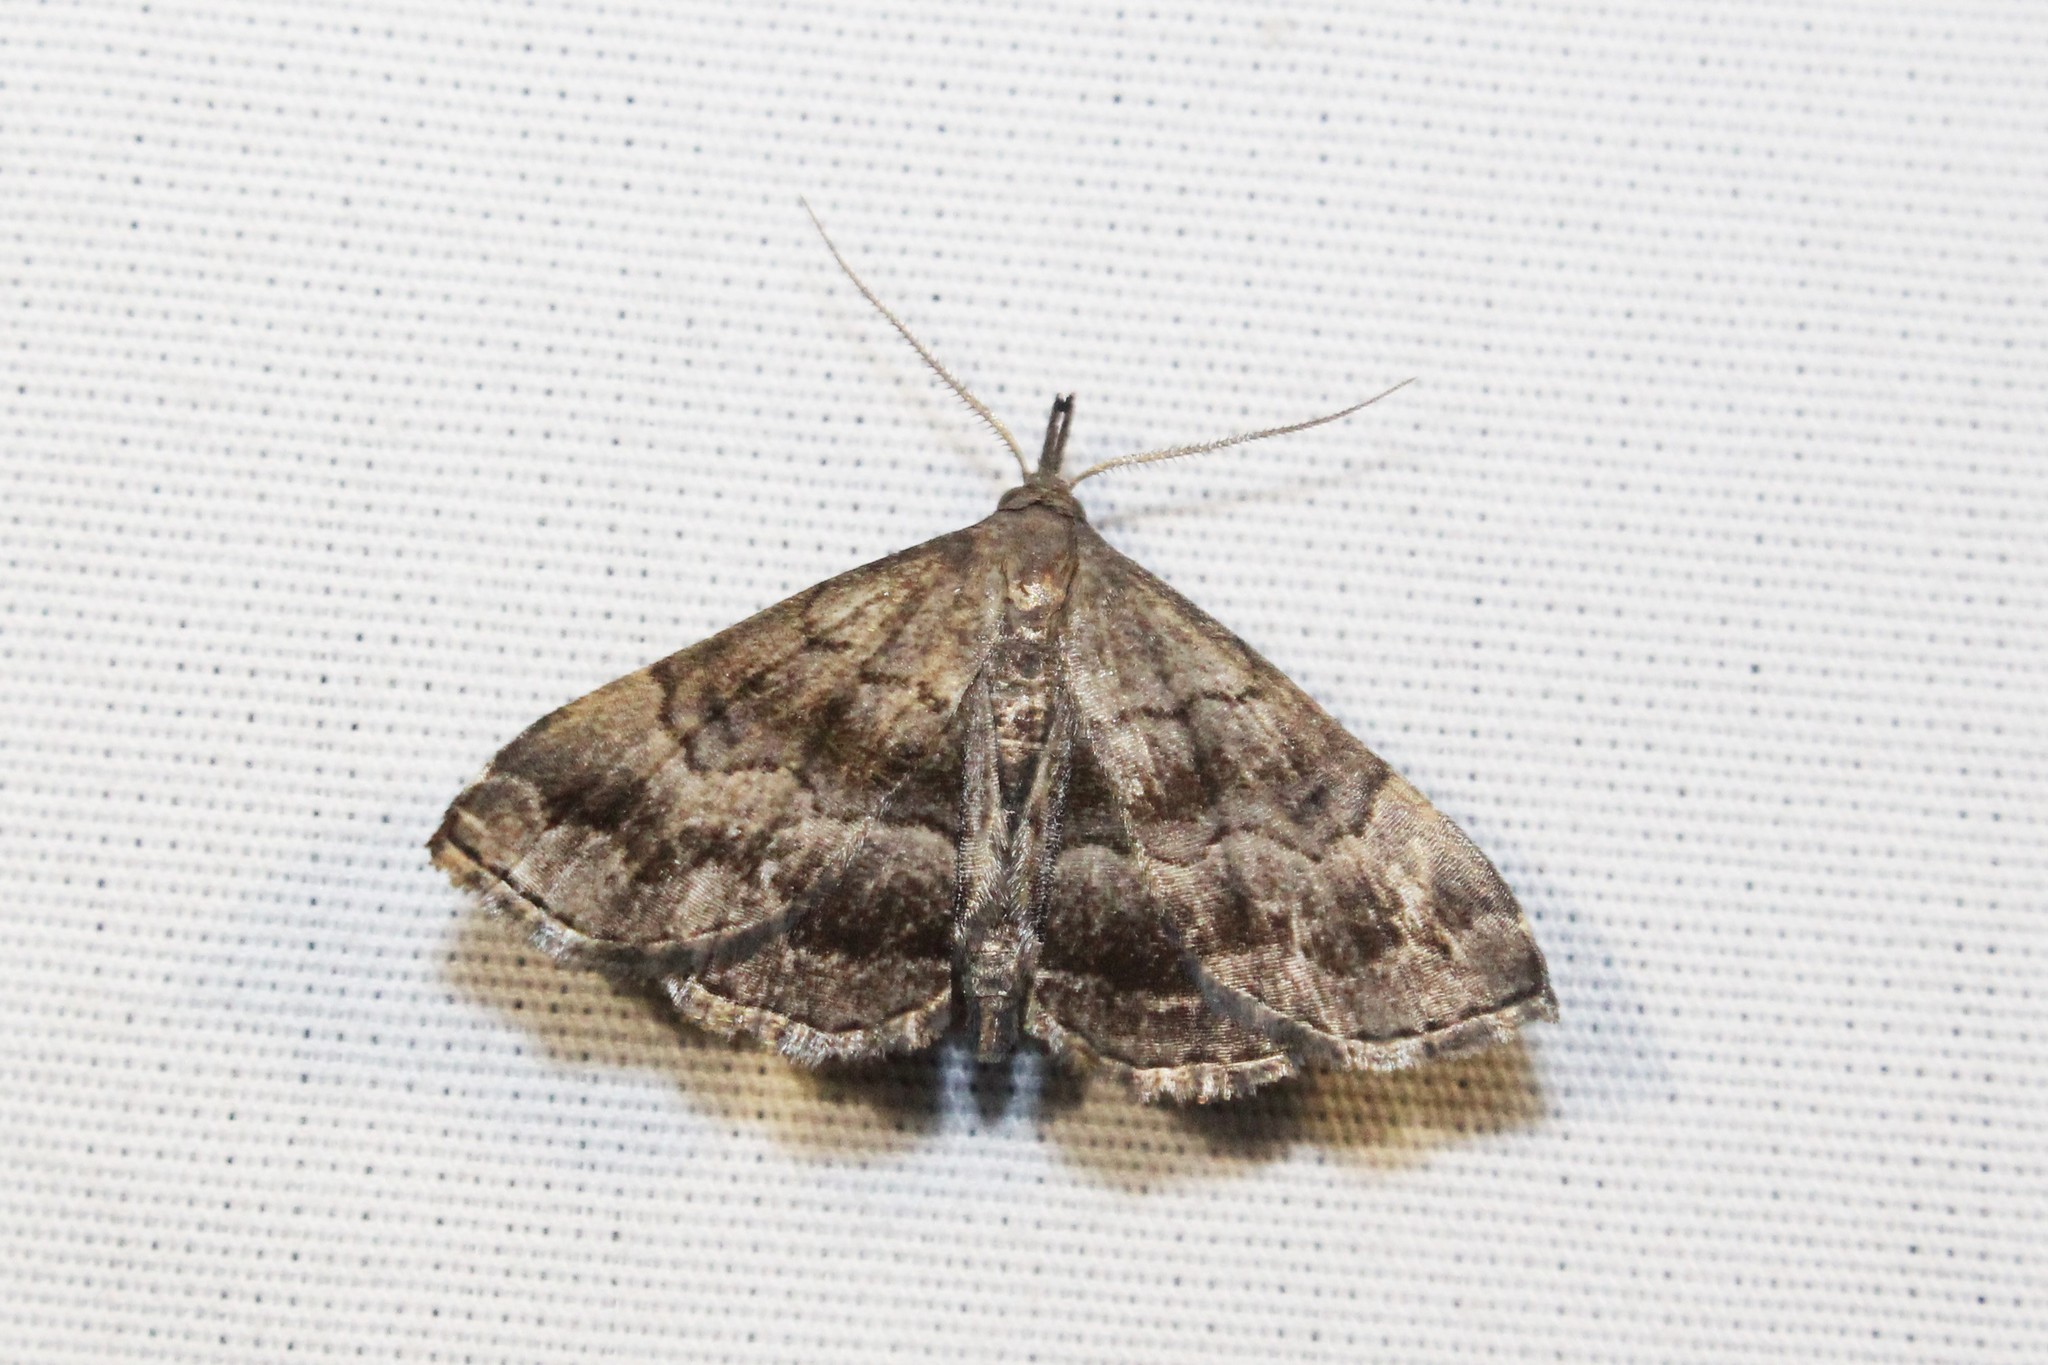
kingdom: Animalia
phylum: Arthropoda
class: Insecta
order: Lepidoptera
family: Erebidae
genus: Phalaenostola
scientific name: Phalaenostola larentioides
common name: Black-banded owlet
